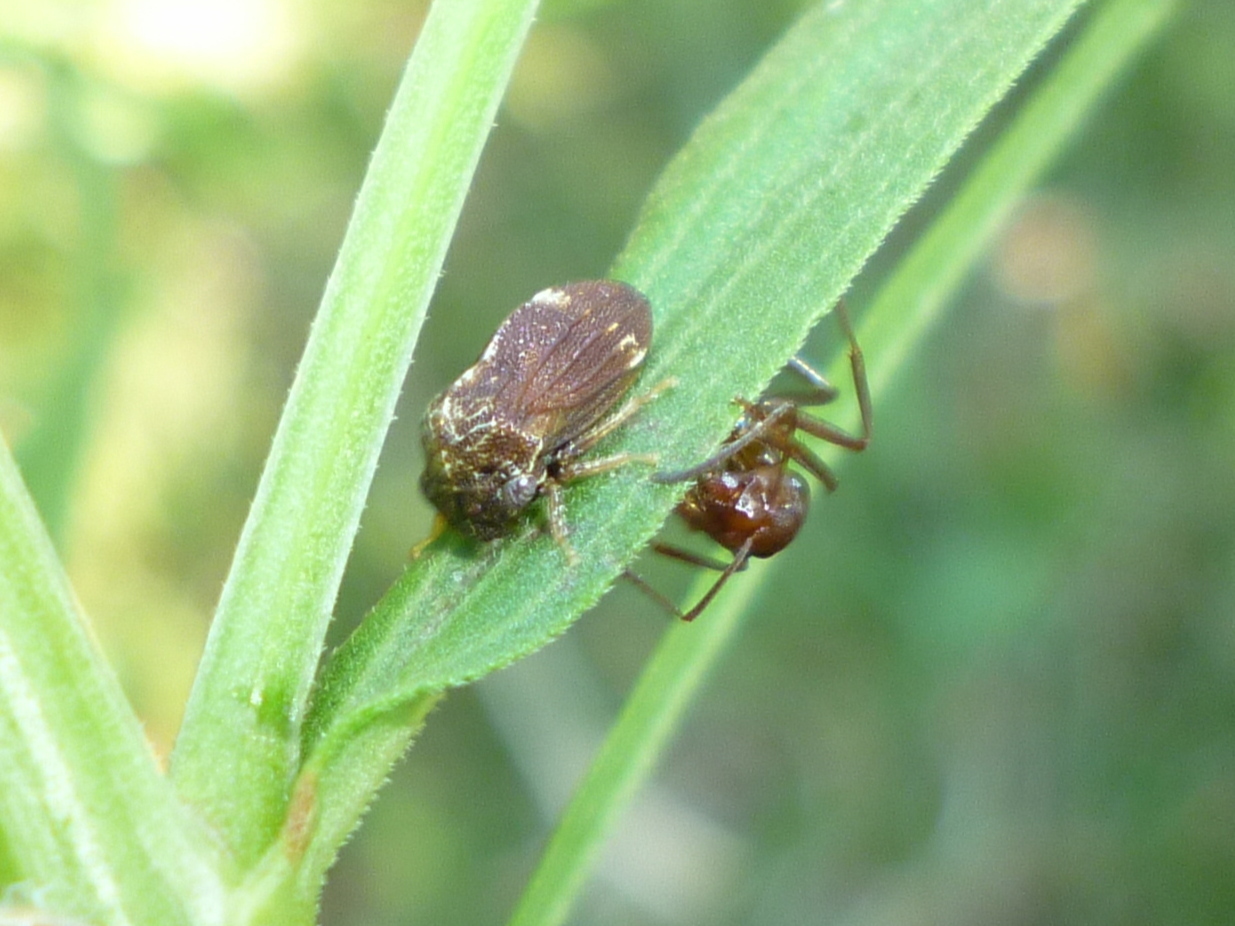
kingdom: Animalia
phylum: Arthropoda
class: Insecta
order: Hemiptera
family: Membracidae
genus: Publilia
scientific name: Publilia concava
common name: Aster treehopper
